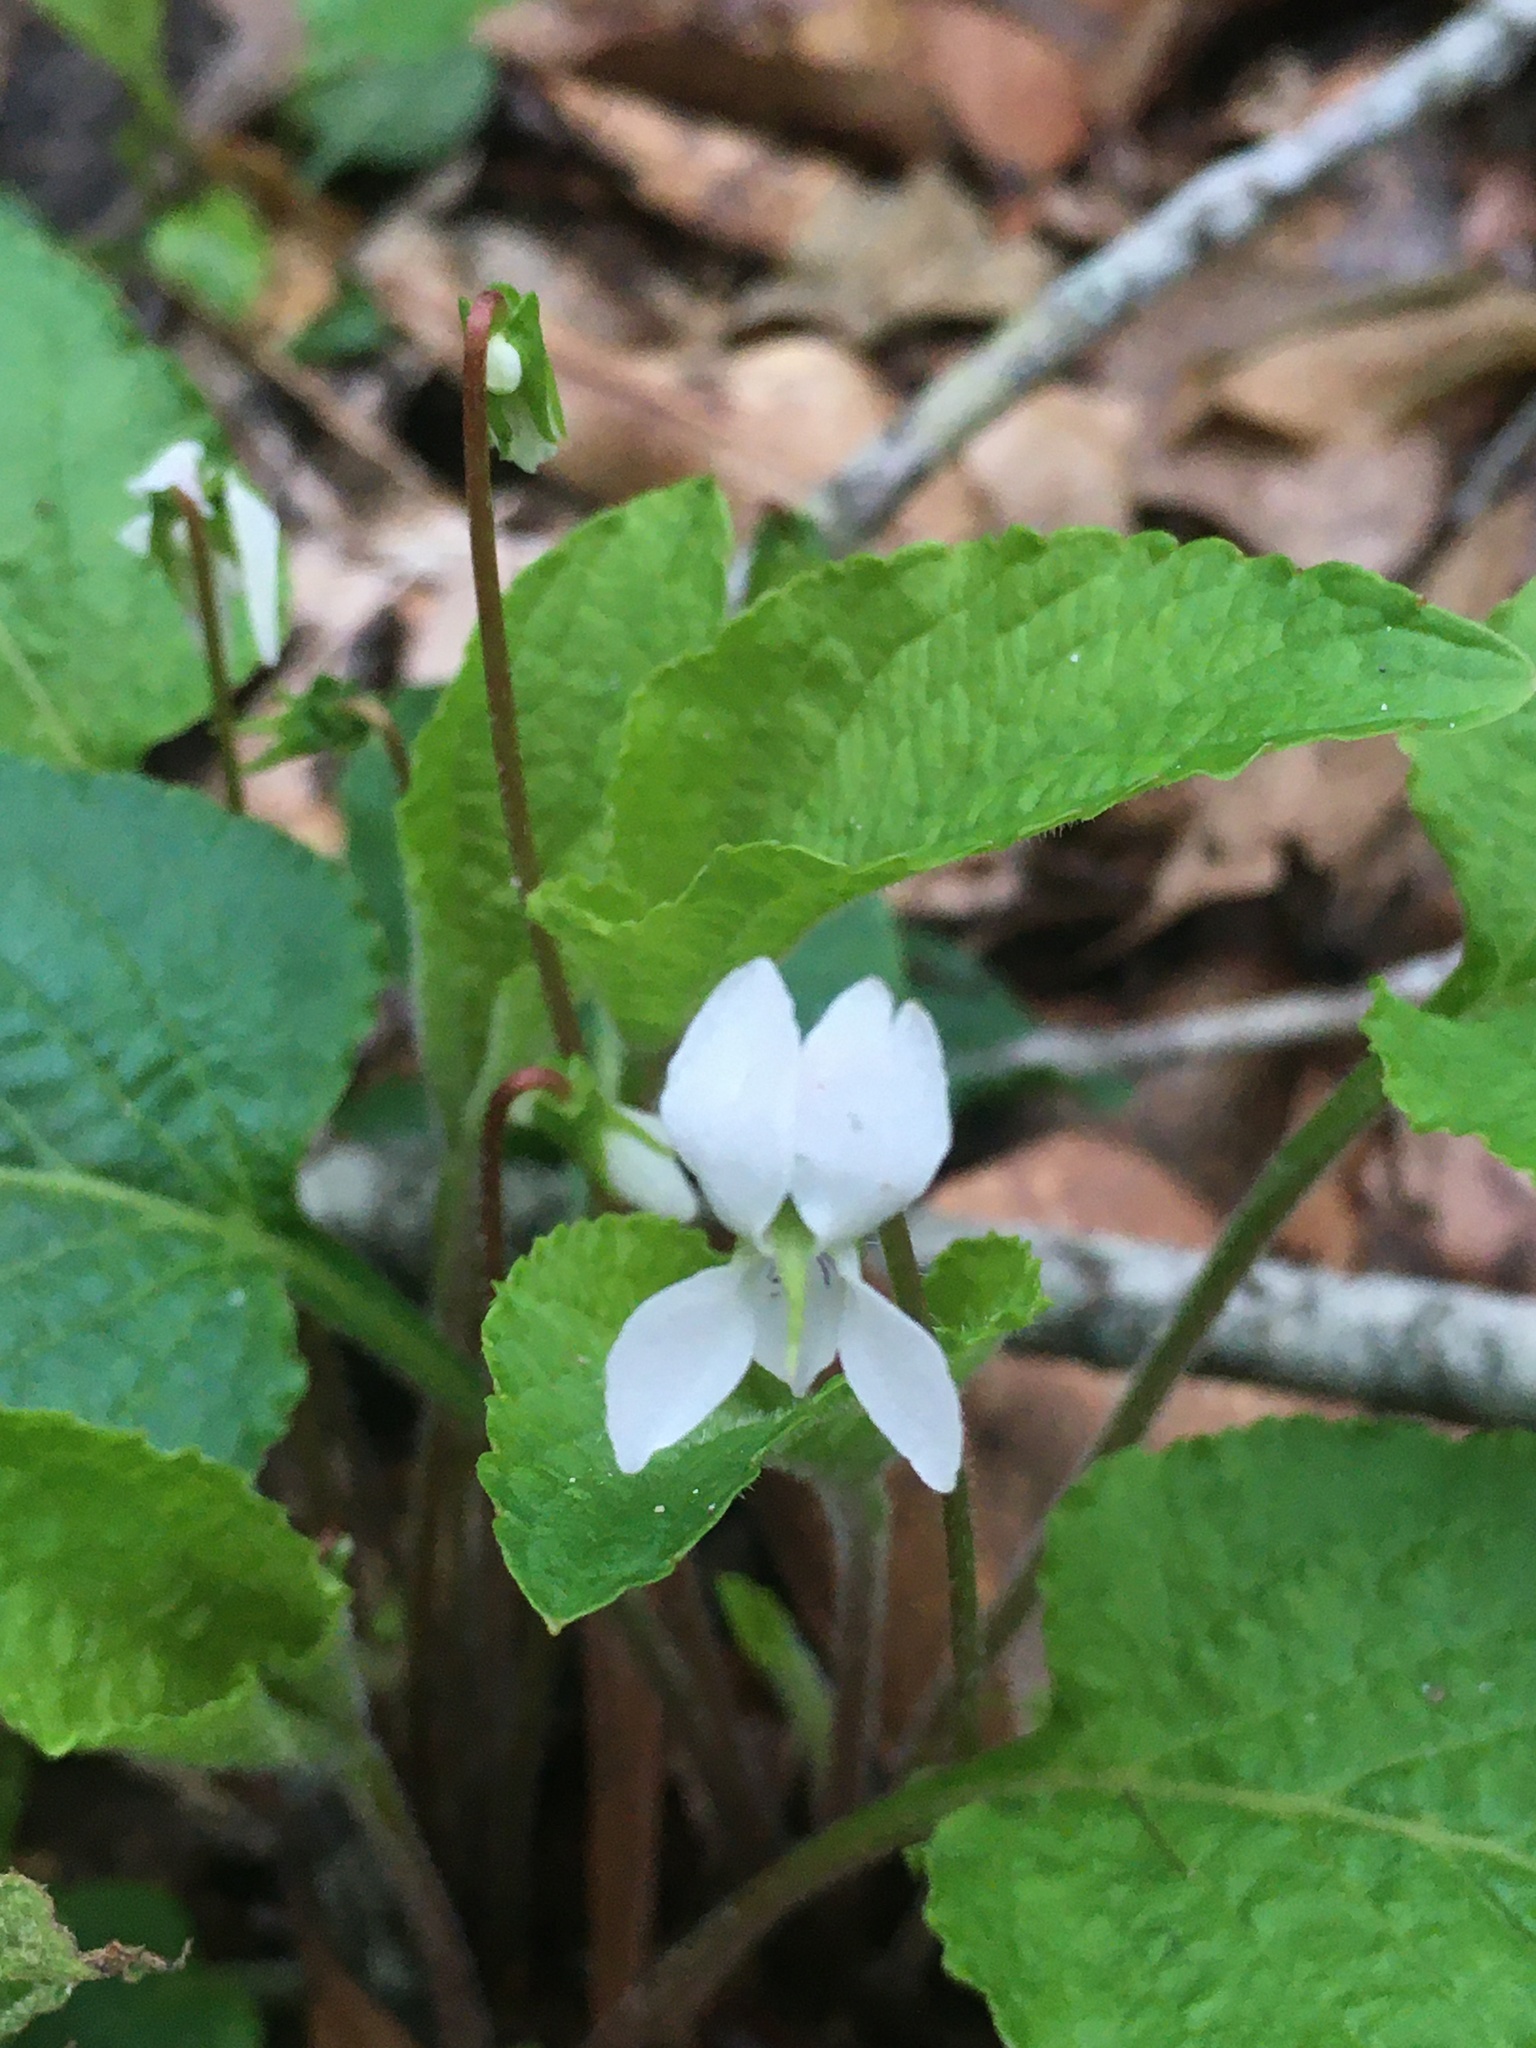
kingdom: Plantae
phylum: Tracheophyta
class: Magnoliopsida
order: Malpighiales
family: Violaceae
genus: Viola
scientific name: Viola primulifolia
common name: Primrose-leaf violet
